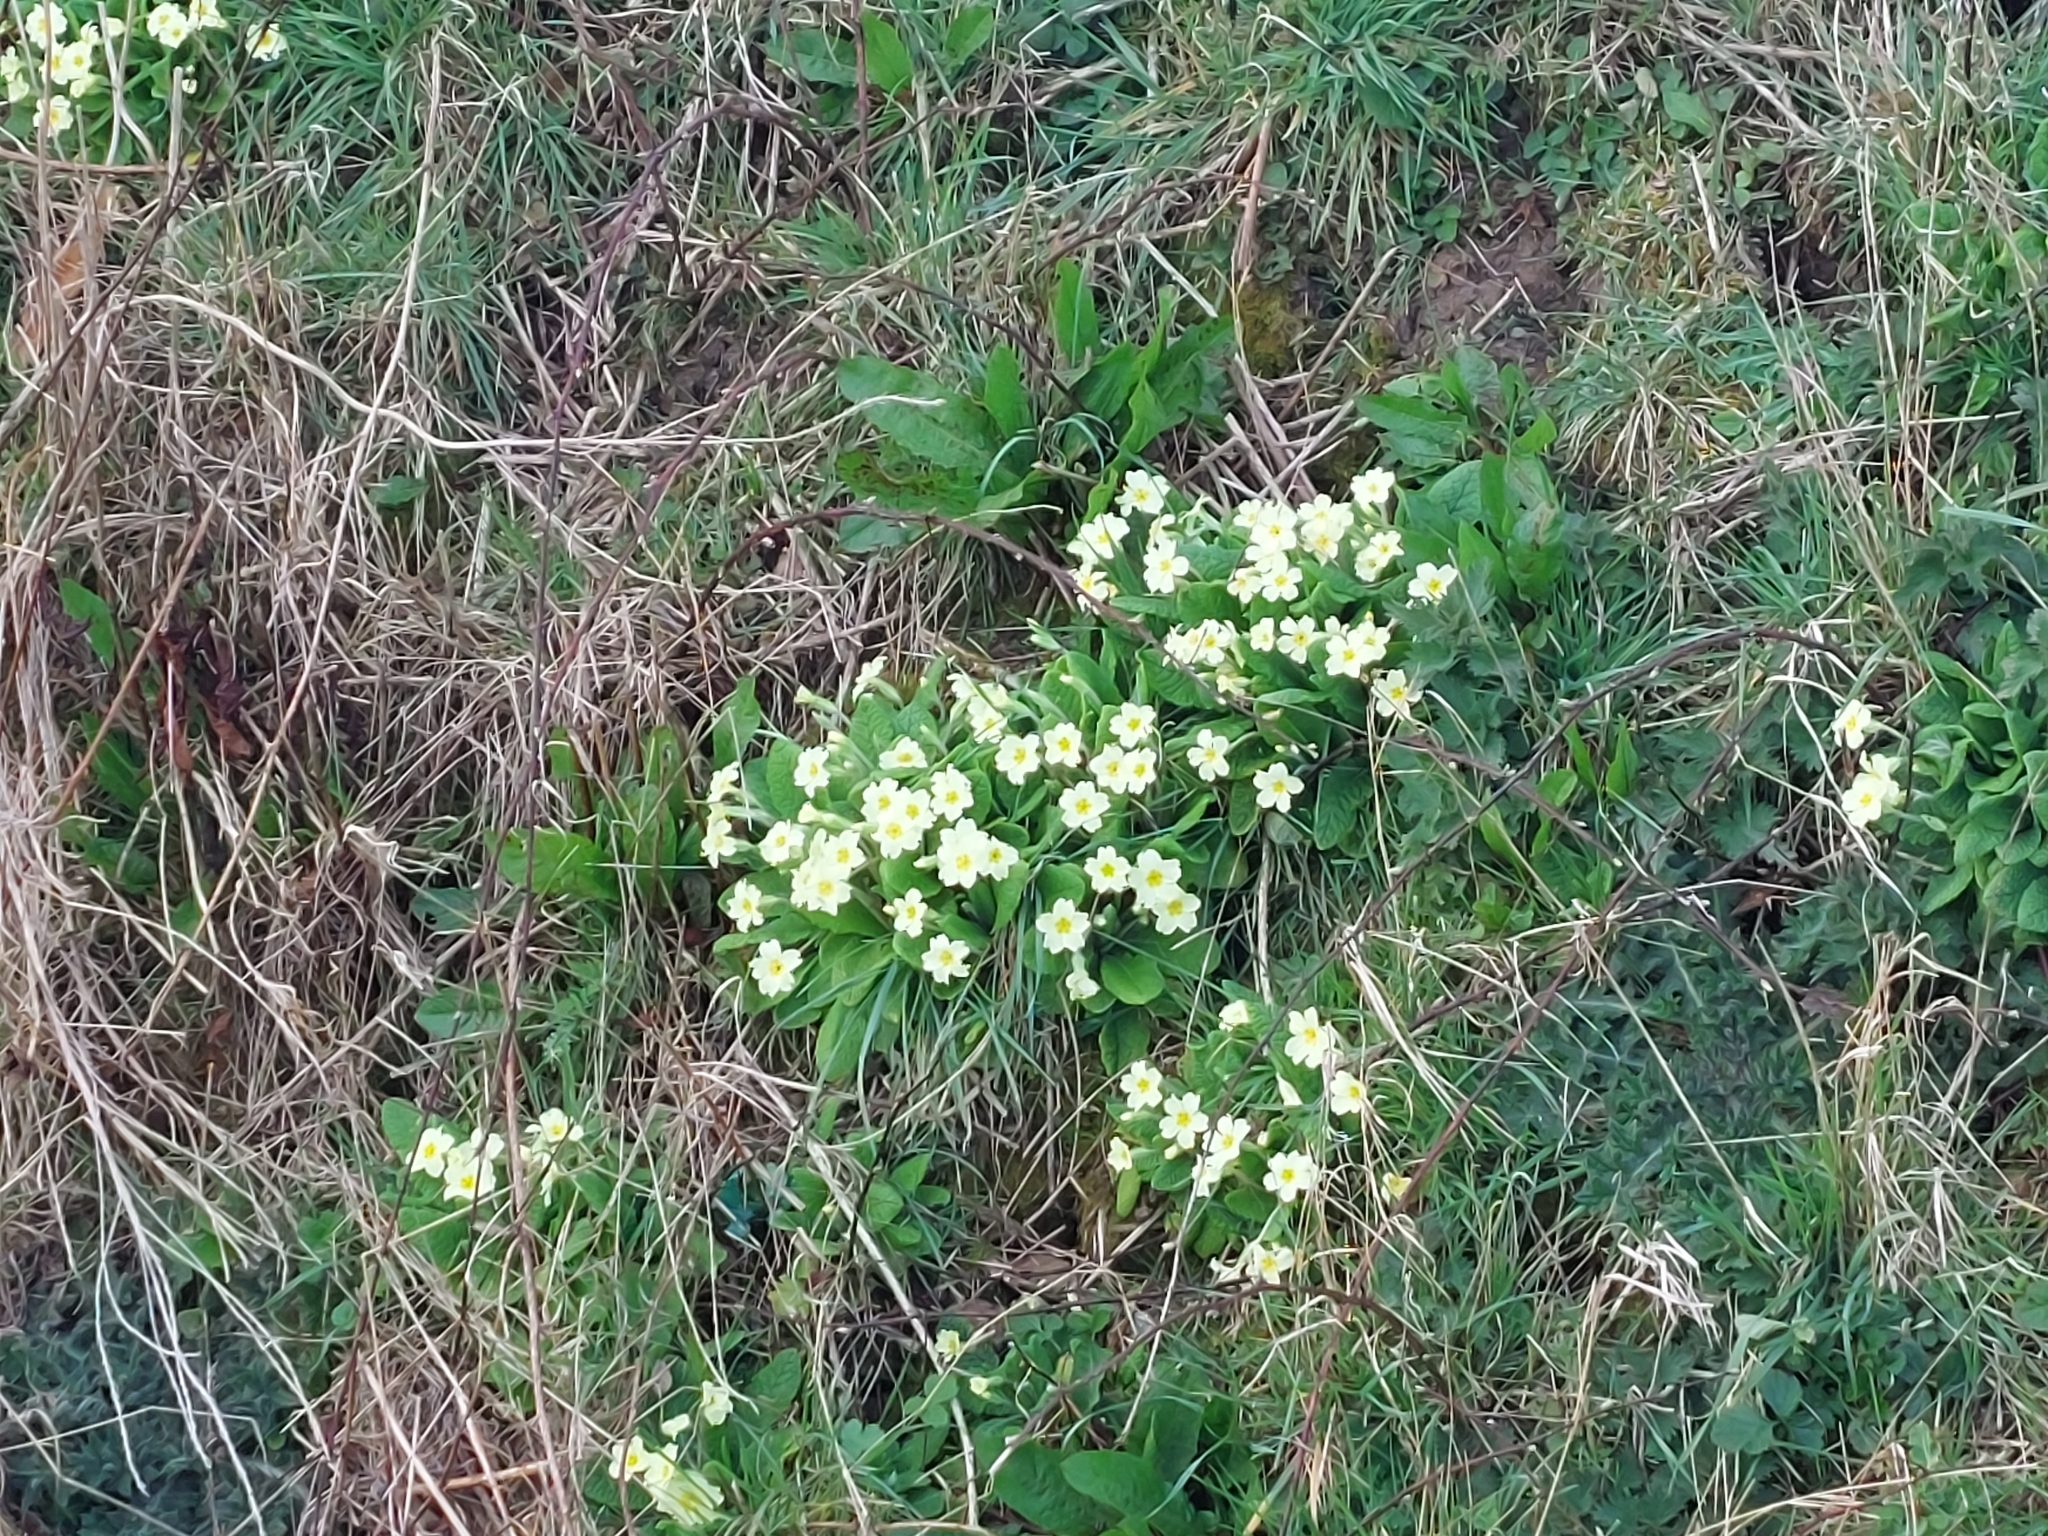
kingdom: Plantae
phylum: Tracheophyta
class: Magnoliopsida
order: Ericales
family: Primulaceae
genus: Primula
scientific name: Primula vulgaris
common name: Primrose
